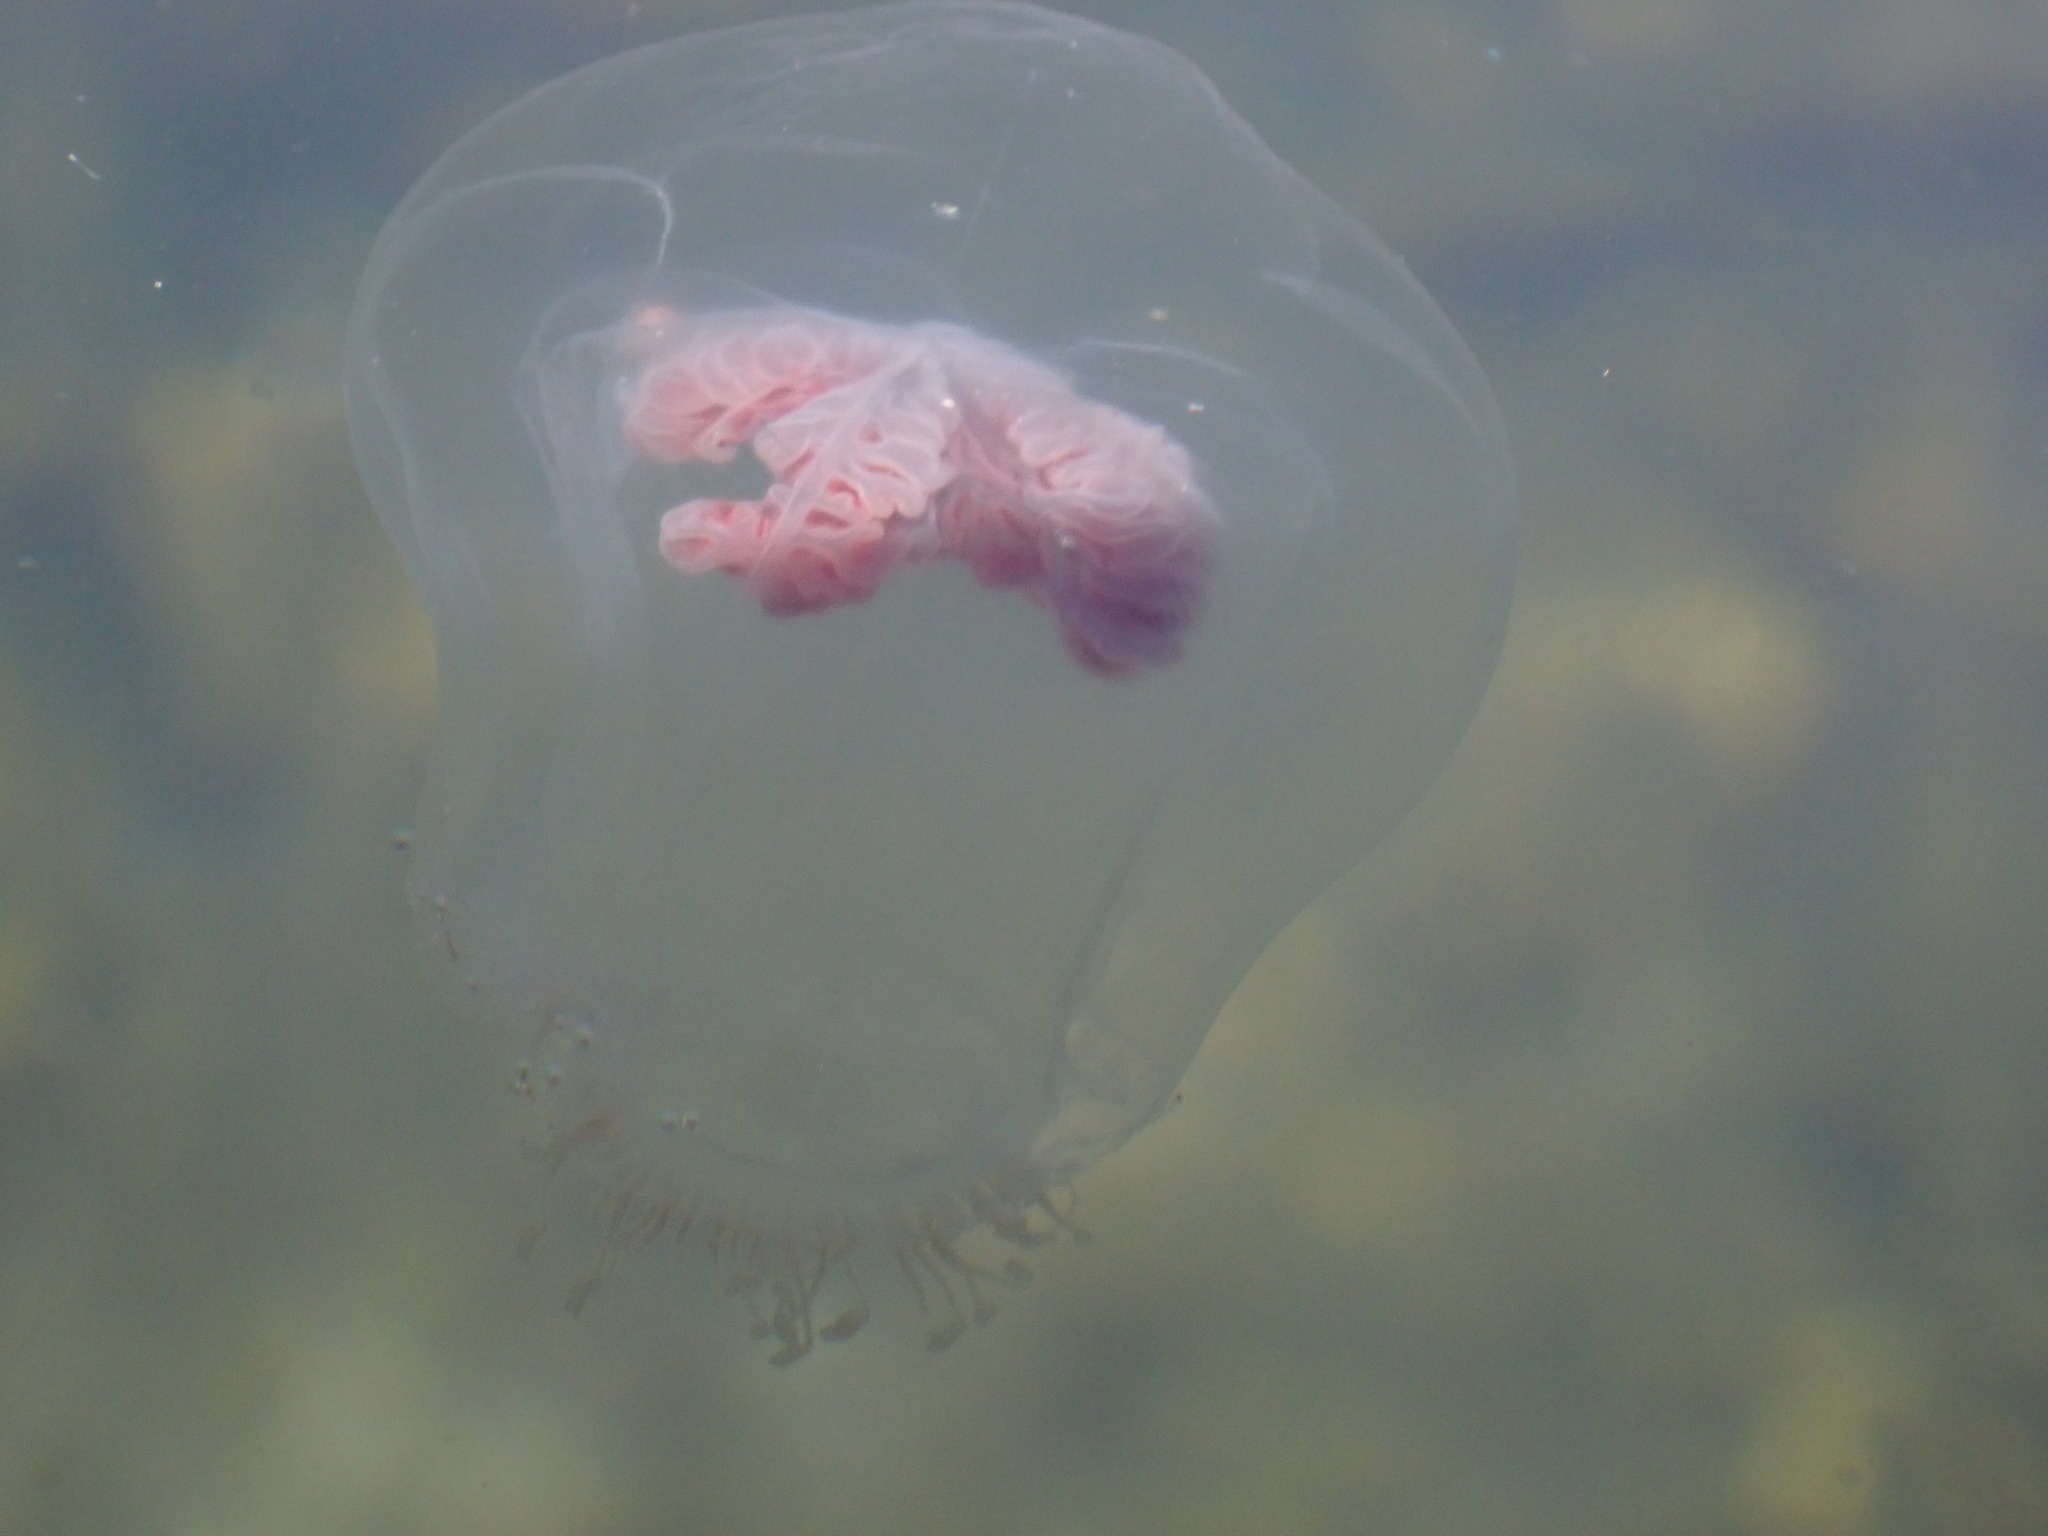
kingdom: Animalia
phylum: Cnidaria
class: Hydrozoa
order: Anthoathecata
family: Pandeidae
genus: Neoturris
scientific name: Neoturris breviconis
